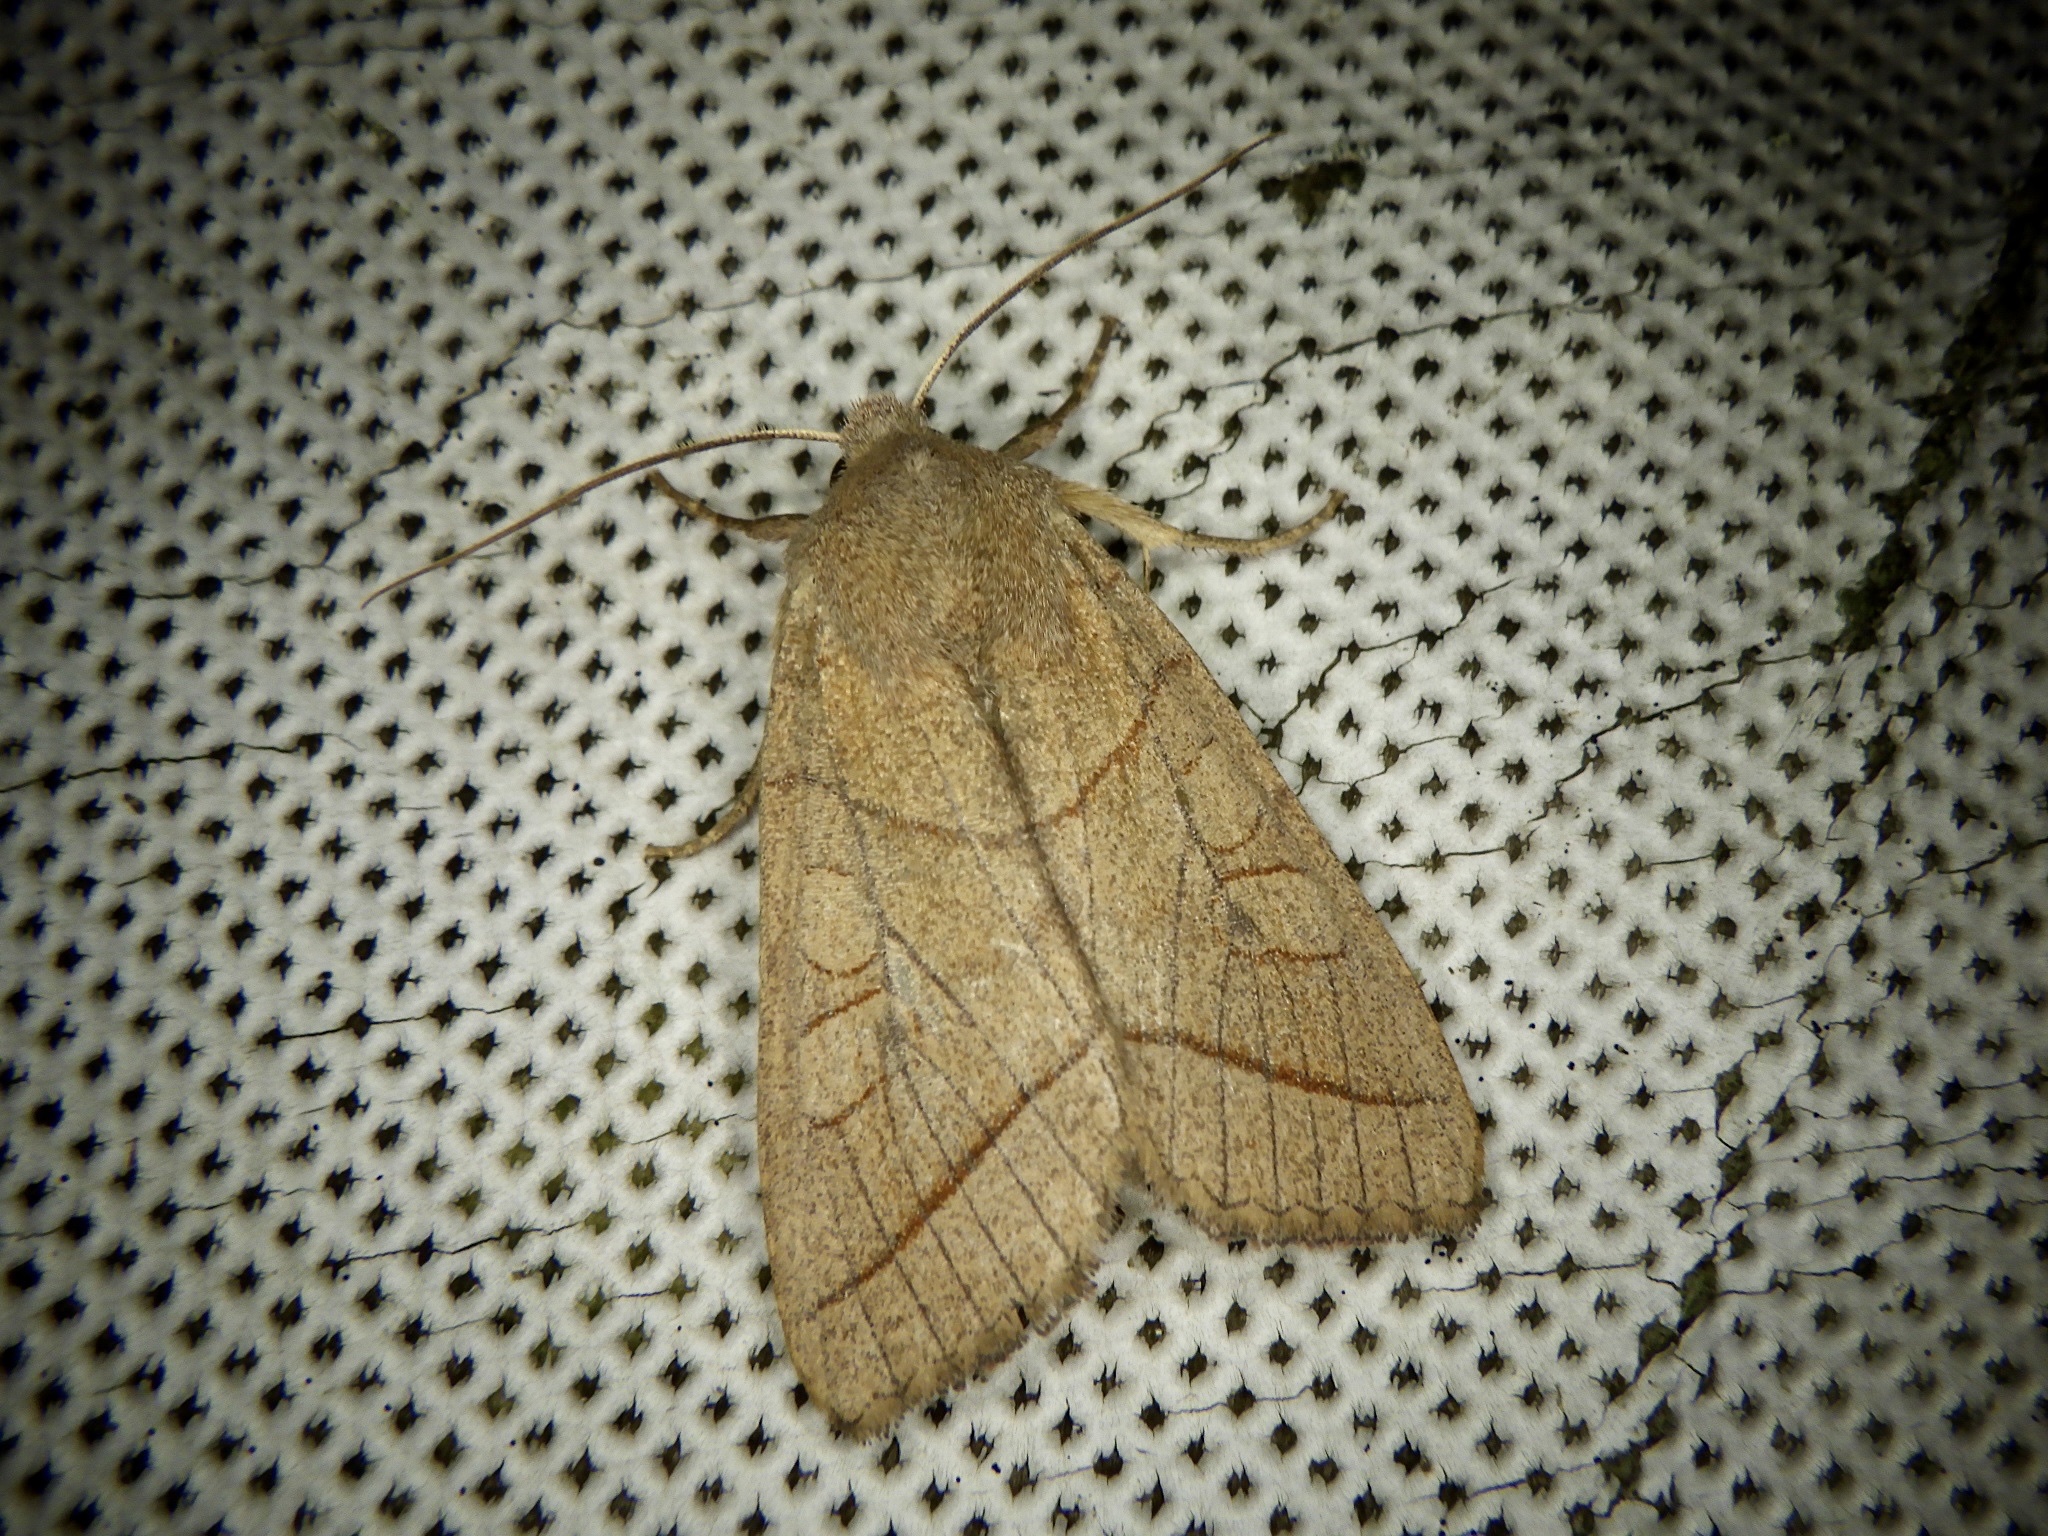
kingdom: Animalia
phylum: Arthropoda
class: Insecta
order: Lepidoptera
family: Noctuidae
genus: Telorta
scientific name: Telorta divergens
